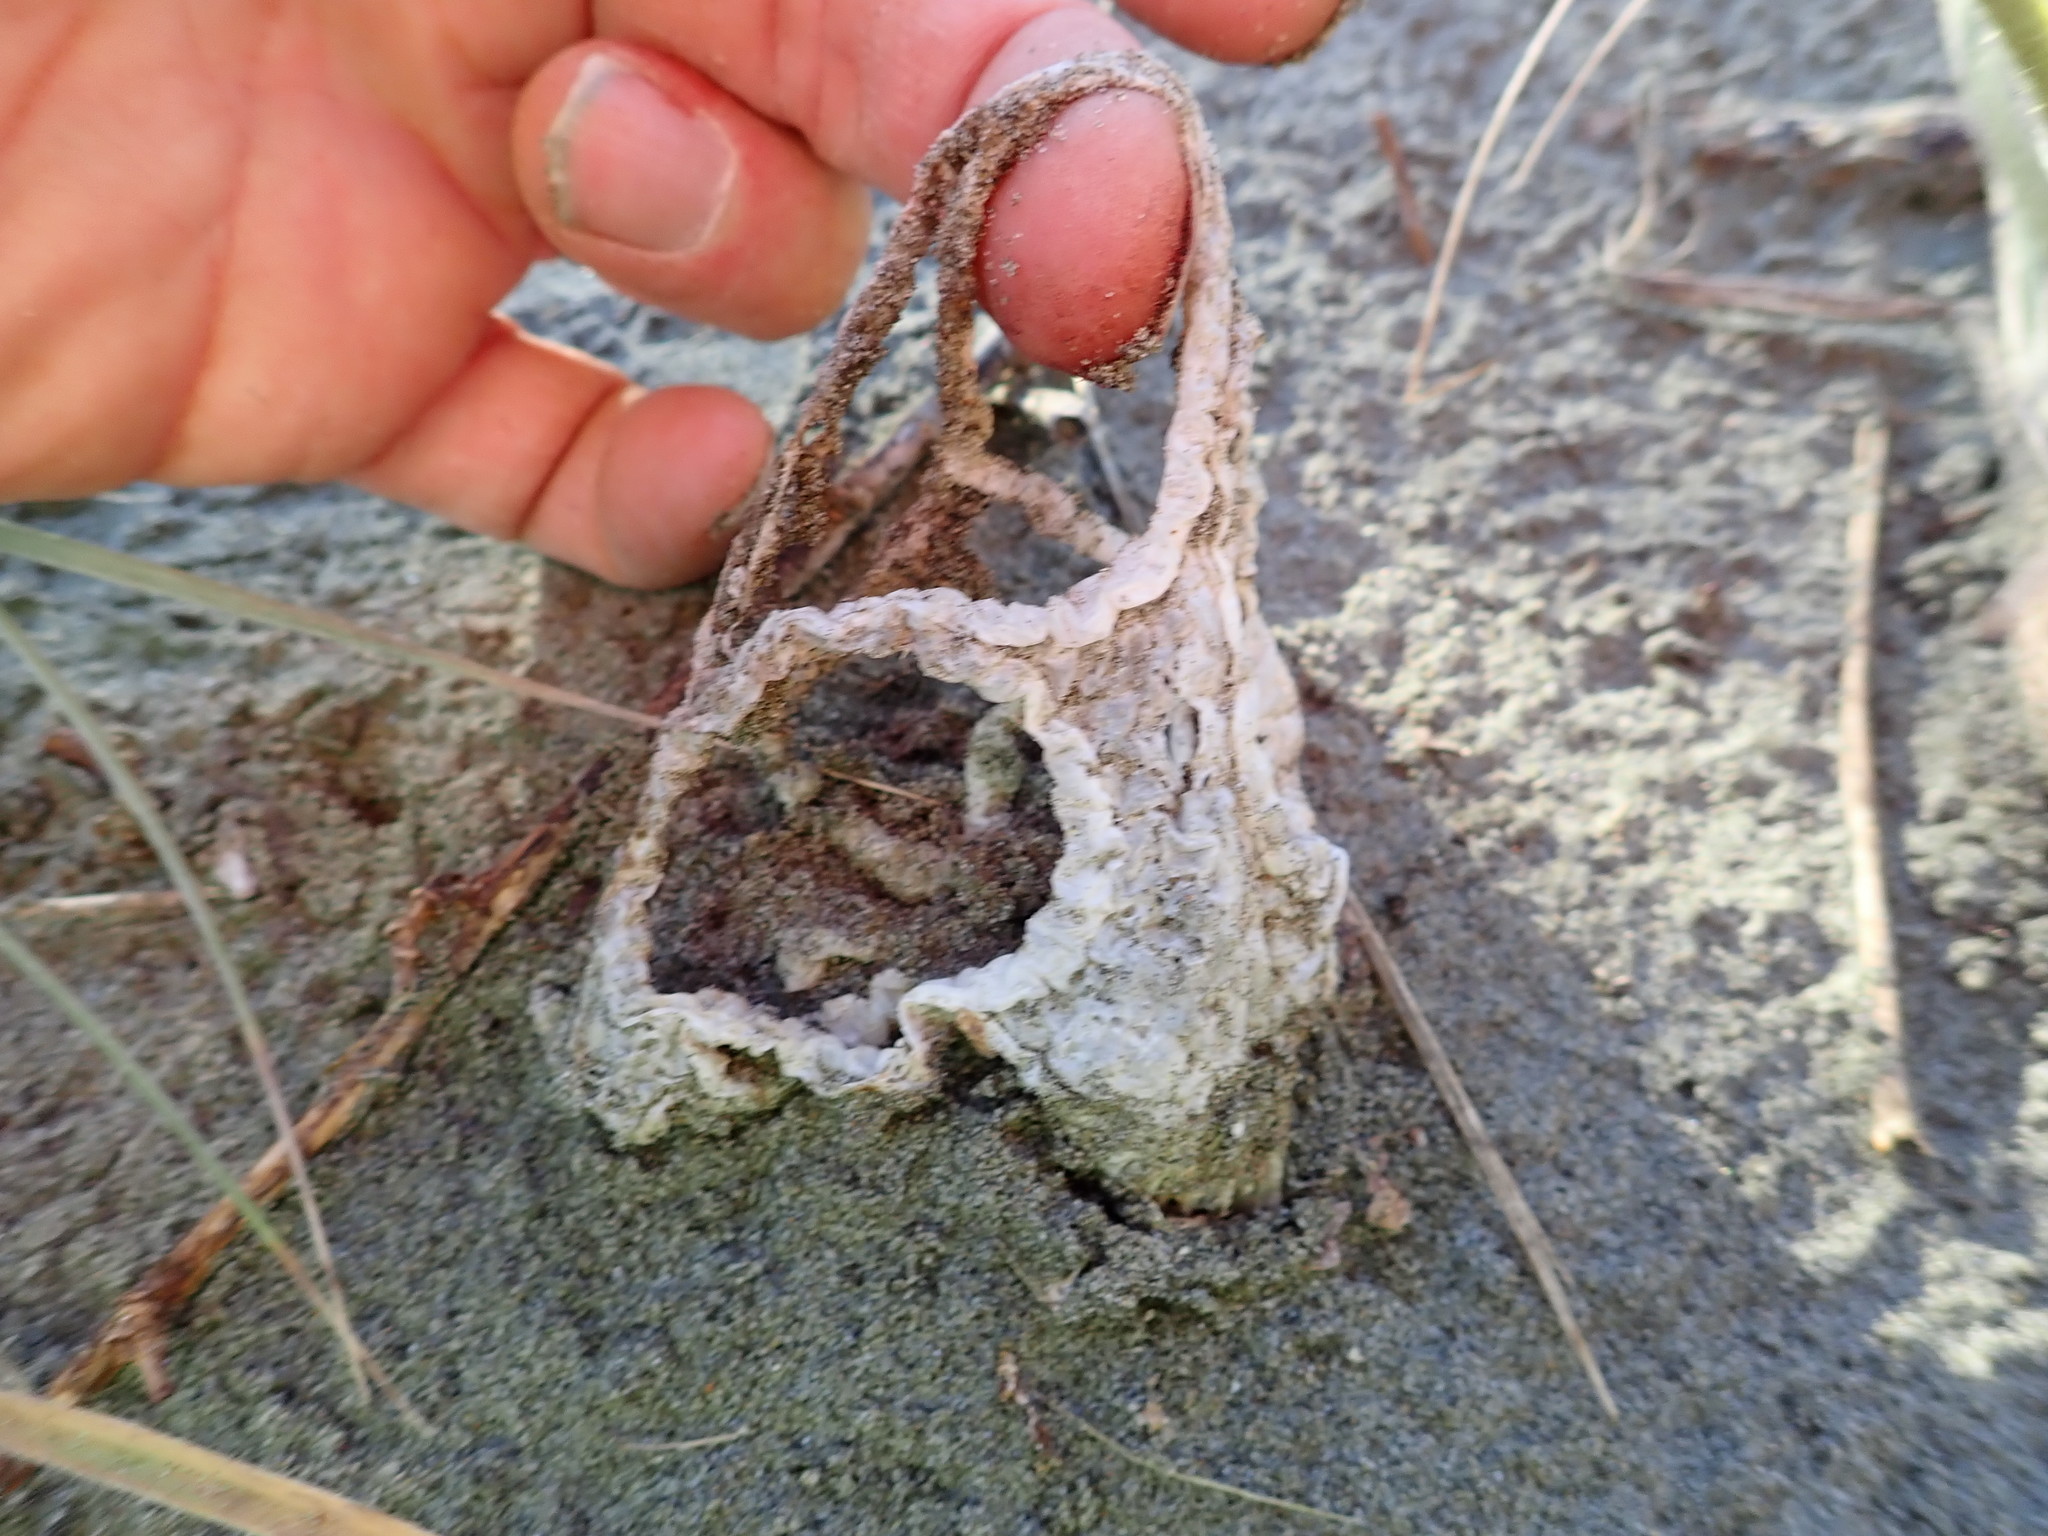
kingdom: Fungi
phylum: Basidiomycota
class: Agaricomycetes
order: Phallales
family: Phallaceae
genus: Ileodictyon
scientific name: Ileodictyon cibarium
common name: Basket fungus
